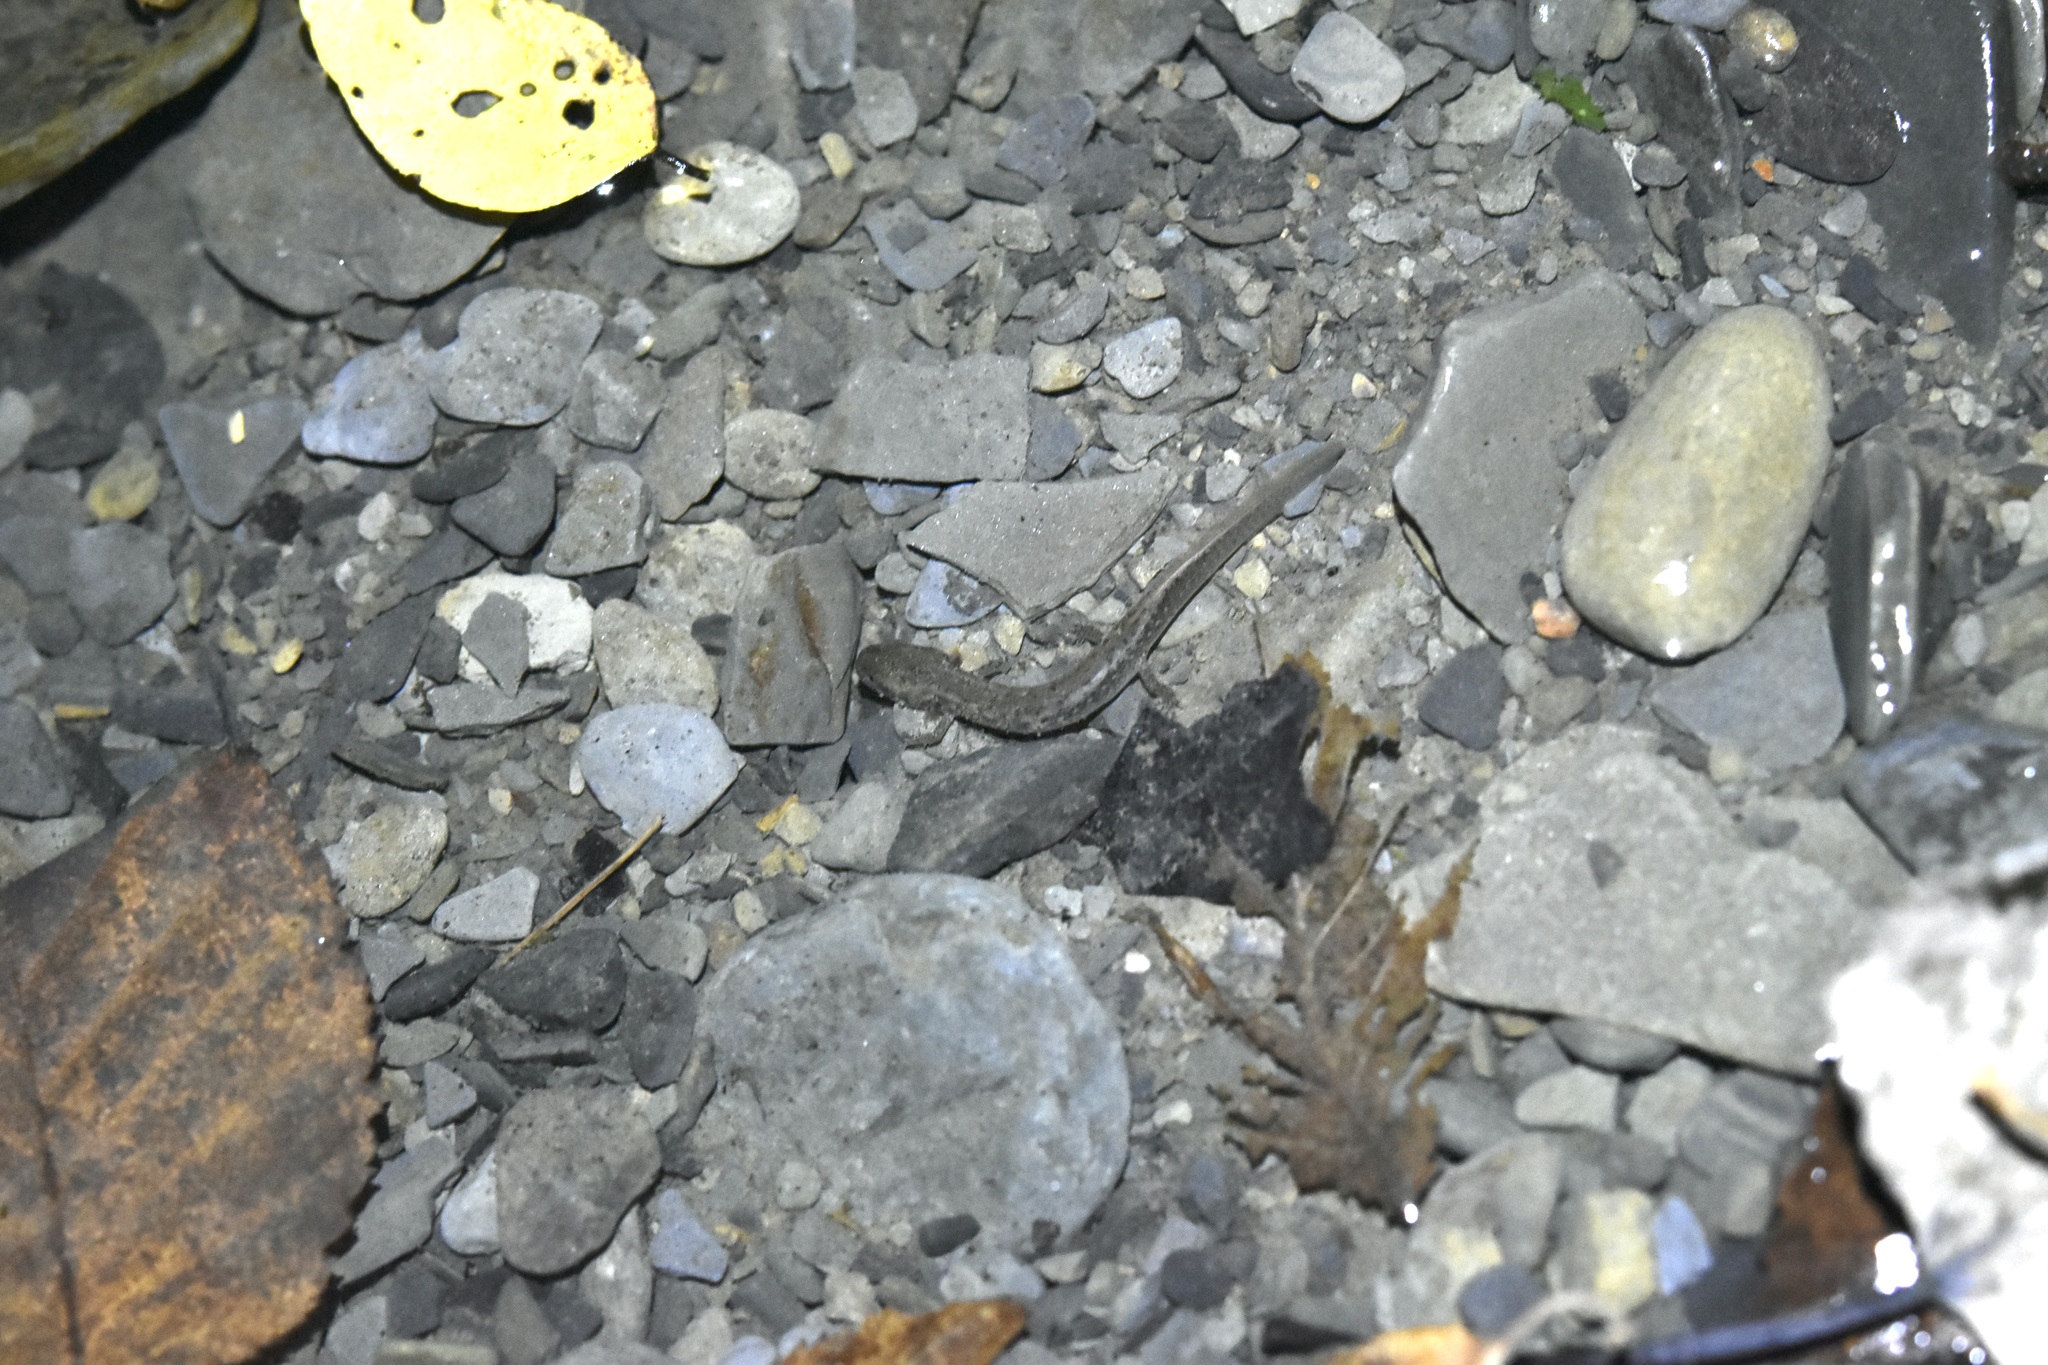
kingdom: Animalia
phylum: Chordata
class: Amphibia
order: Caudata
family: Plethodontidae
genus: Eurycea
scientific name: Eurycea bislineata
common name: Northern two-lined salamander
